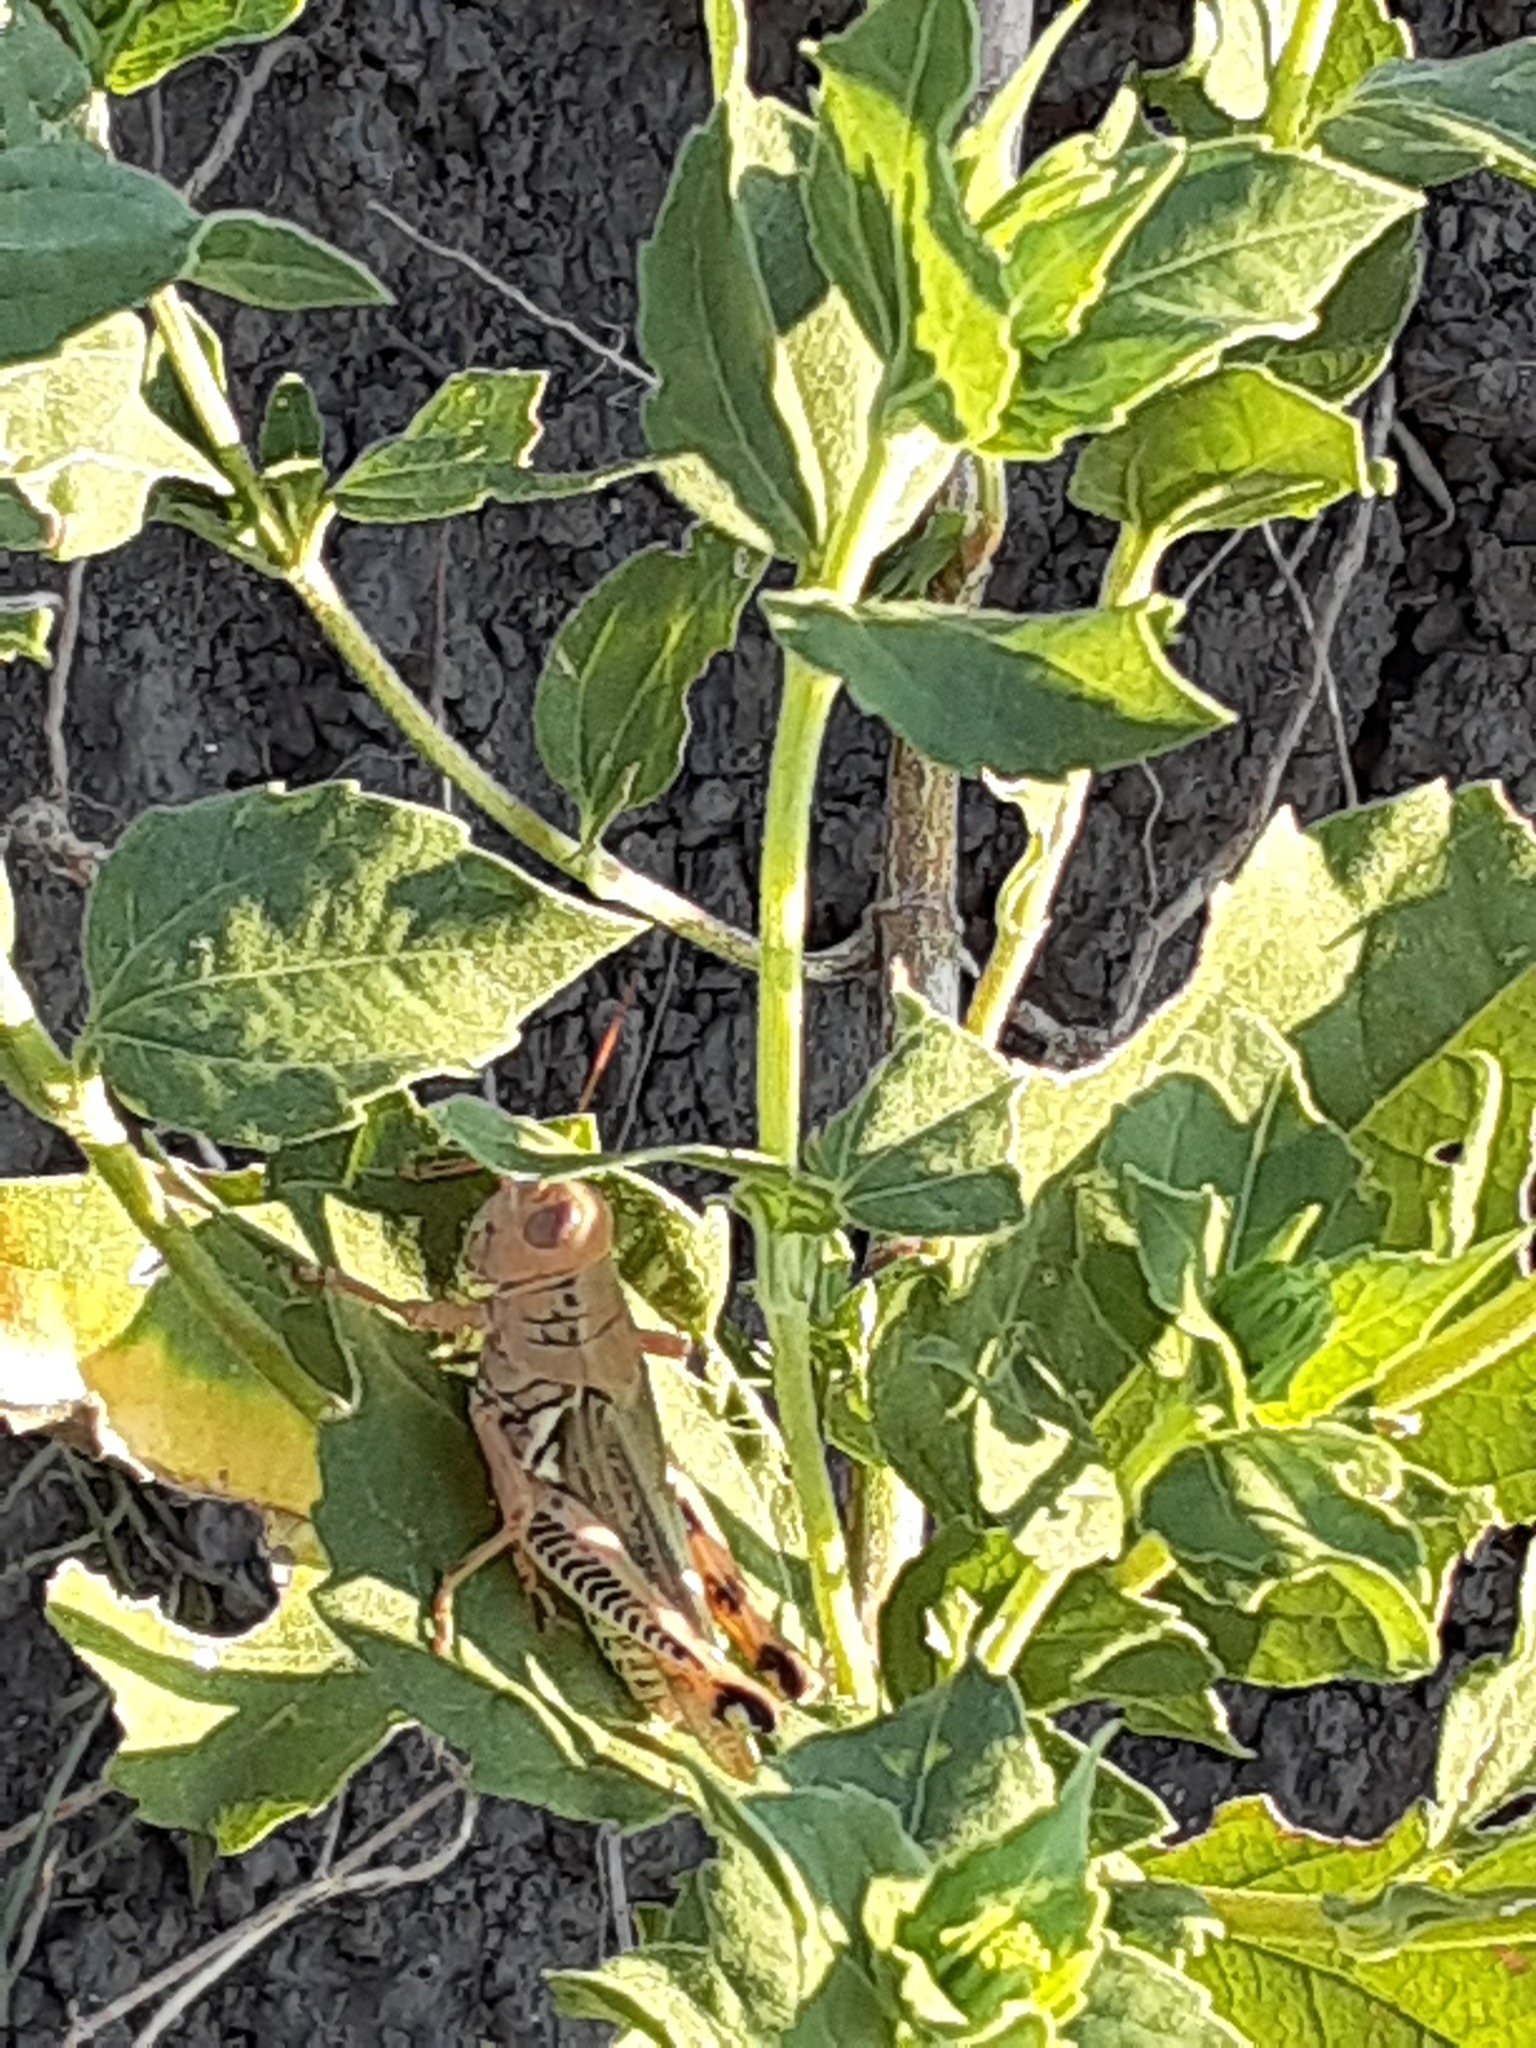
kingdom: Animalia
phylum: Arthropoda
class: Insecta
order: Orthoptera
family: Acrididae
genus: Melanoplus
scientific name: Melanoplus differentialis
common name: Differential grasshopper
